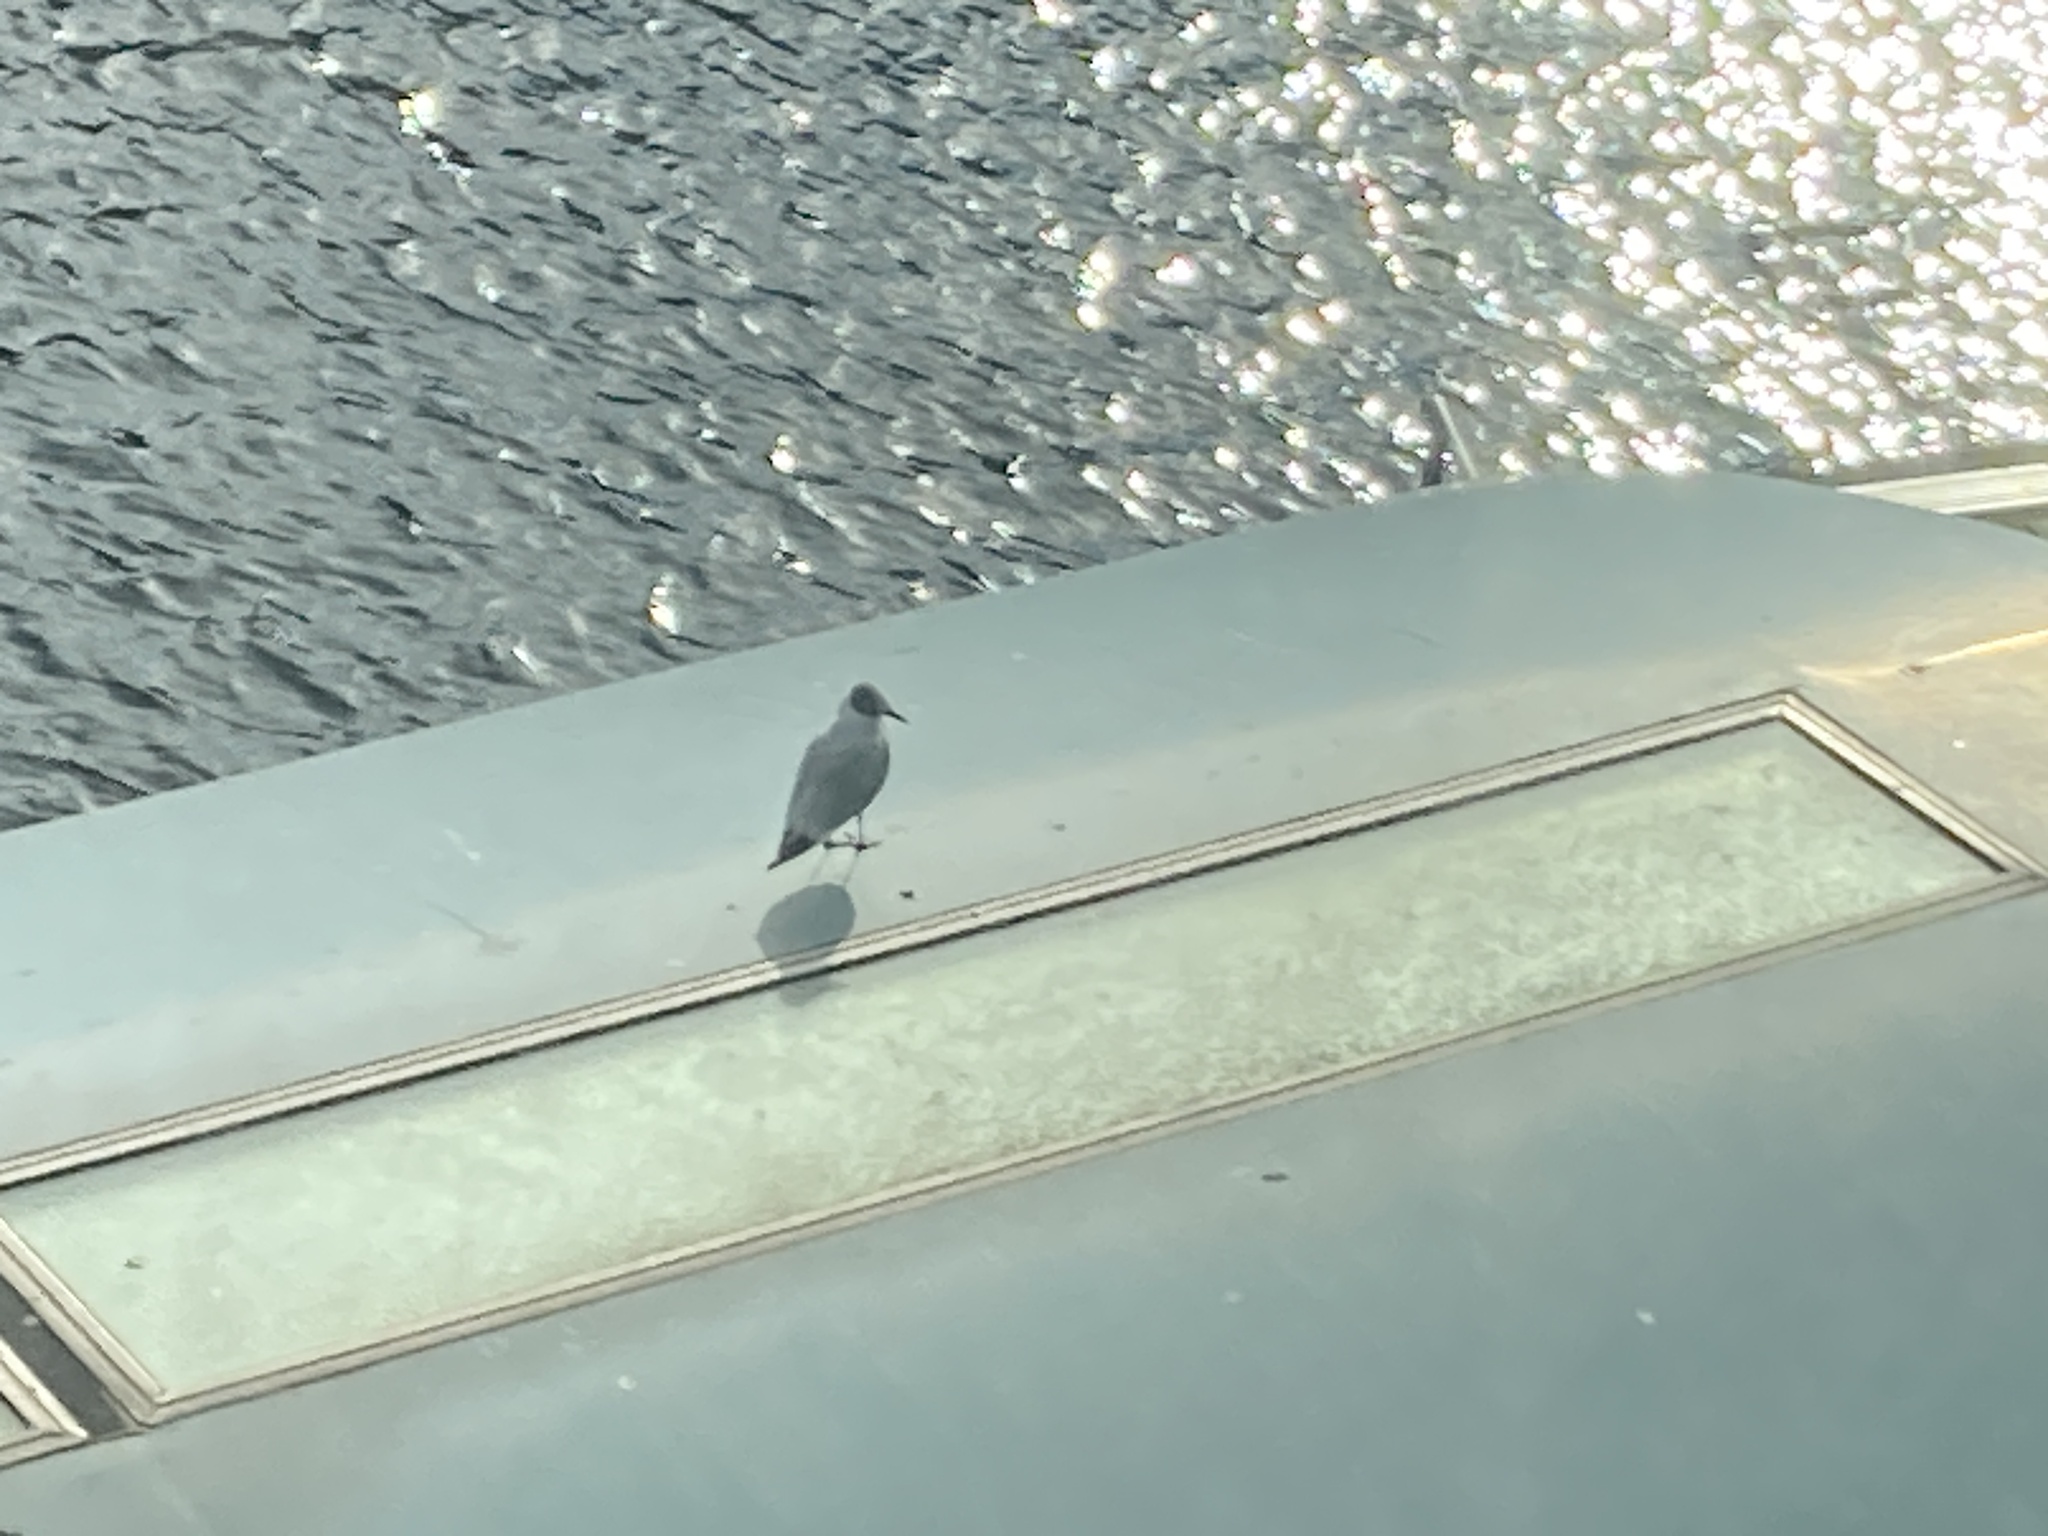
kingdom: Animalia
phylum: Chordata
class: Aves
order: Charadriiformes
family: Laridae
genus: Chroicocephalus
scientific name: Chroicocephalus ridibundus
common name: Black-headed gull
